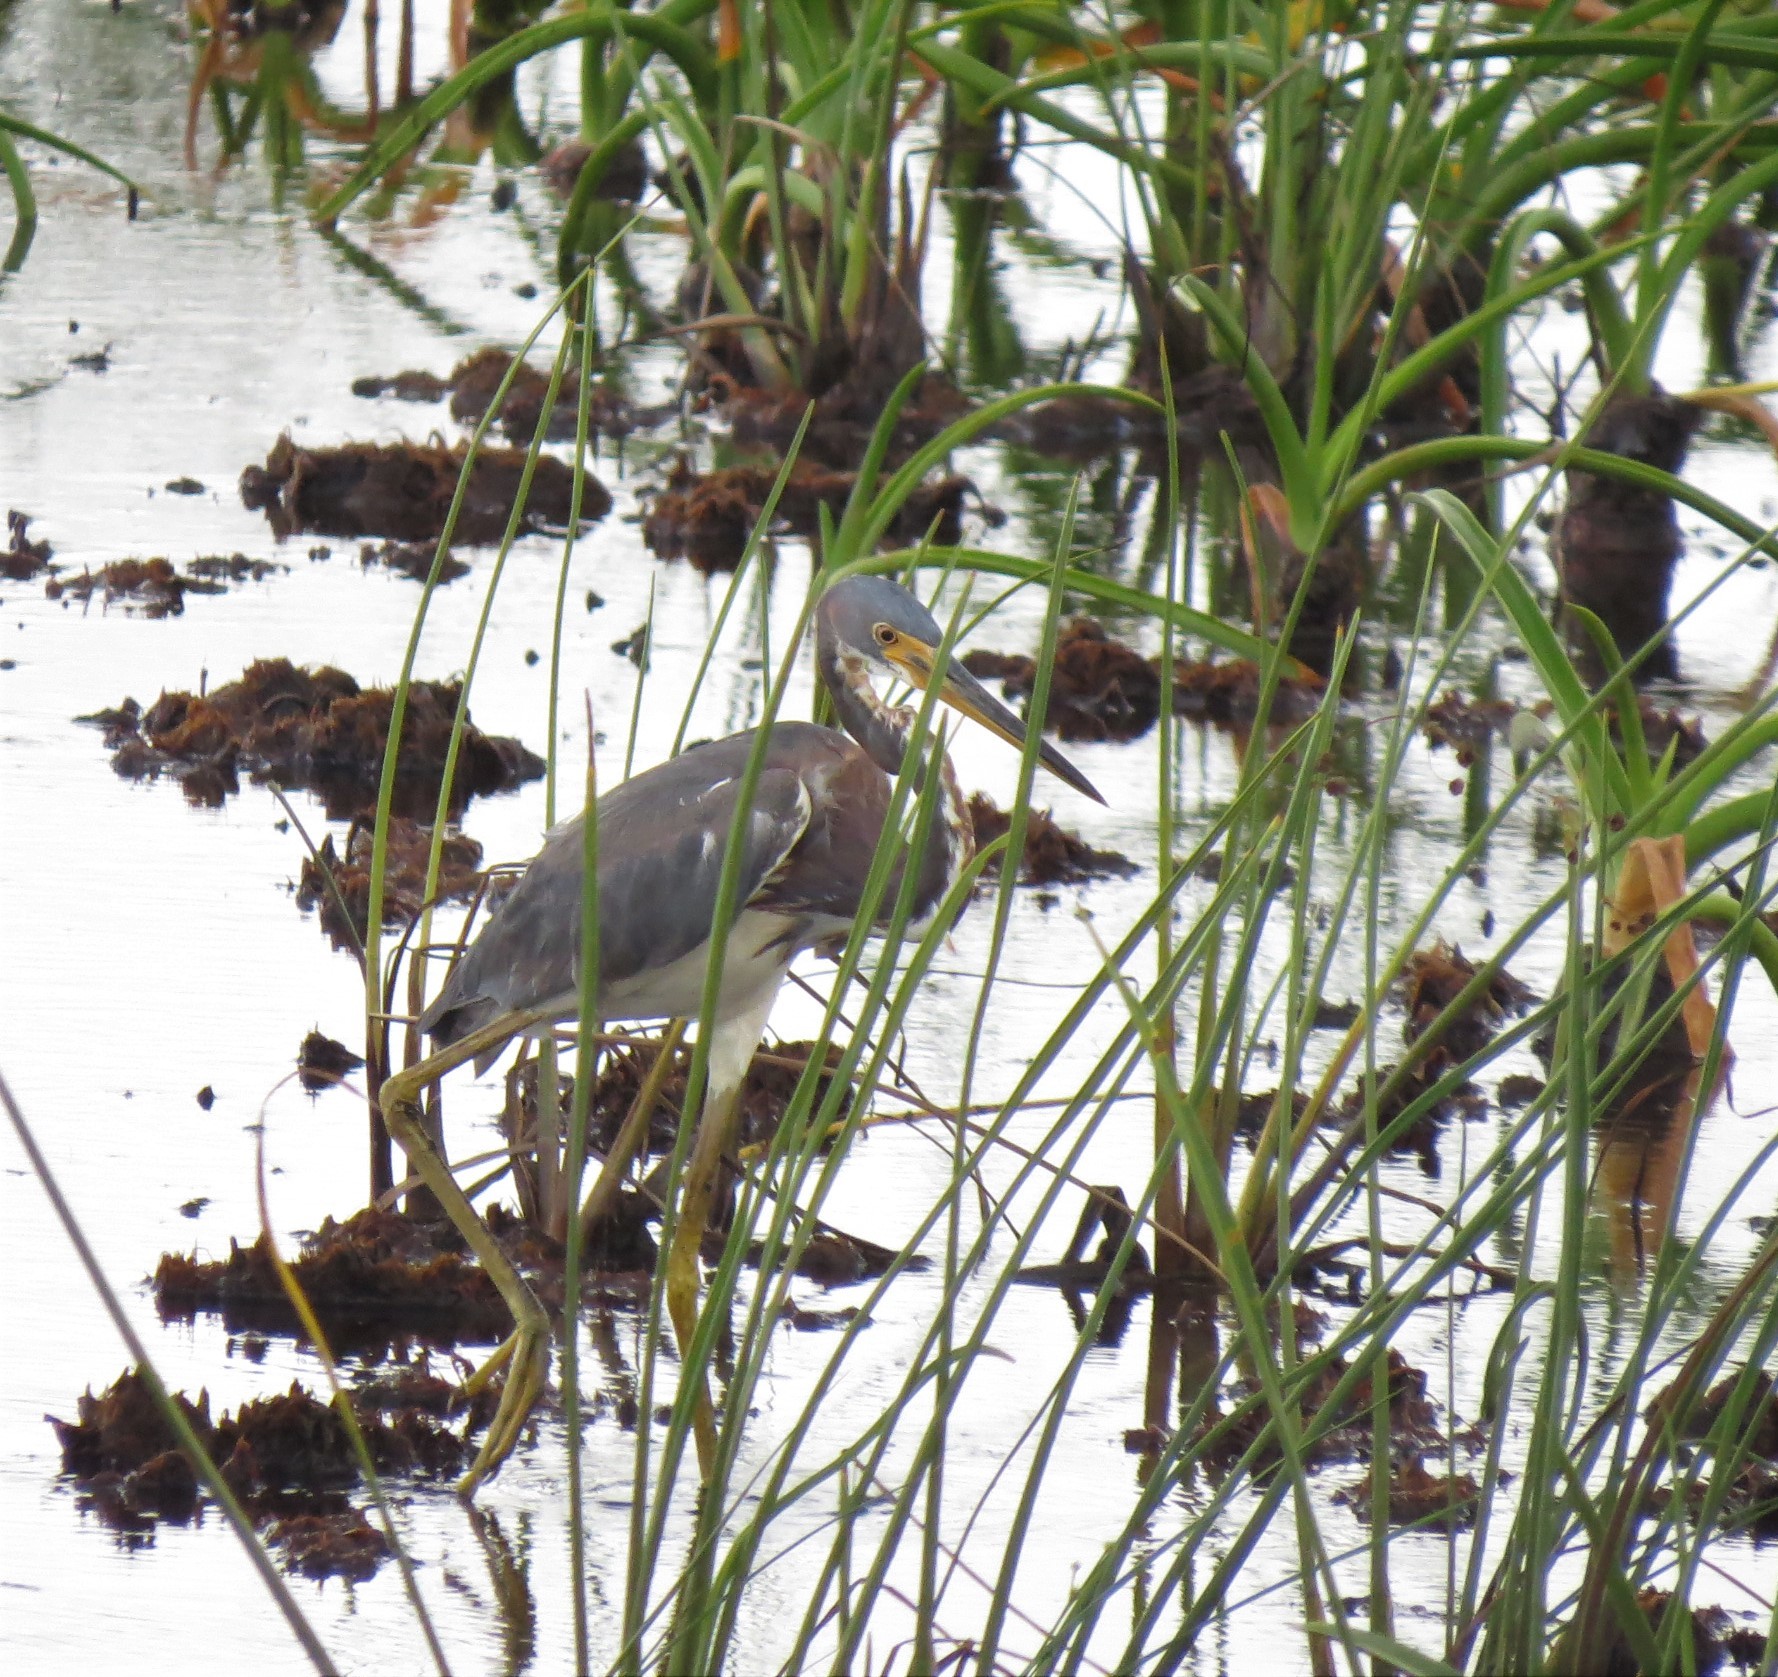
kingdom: Animalia
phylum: Chordata
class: Aves
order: Pelecaniformes
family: Ardeidae
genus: Egretta
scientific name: Egretta tricolor
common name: Tricolored heron
